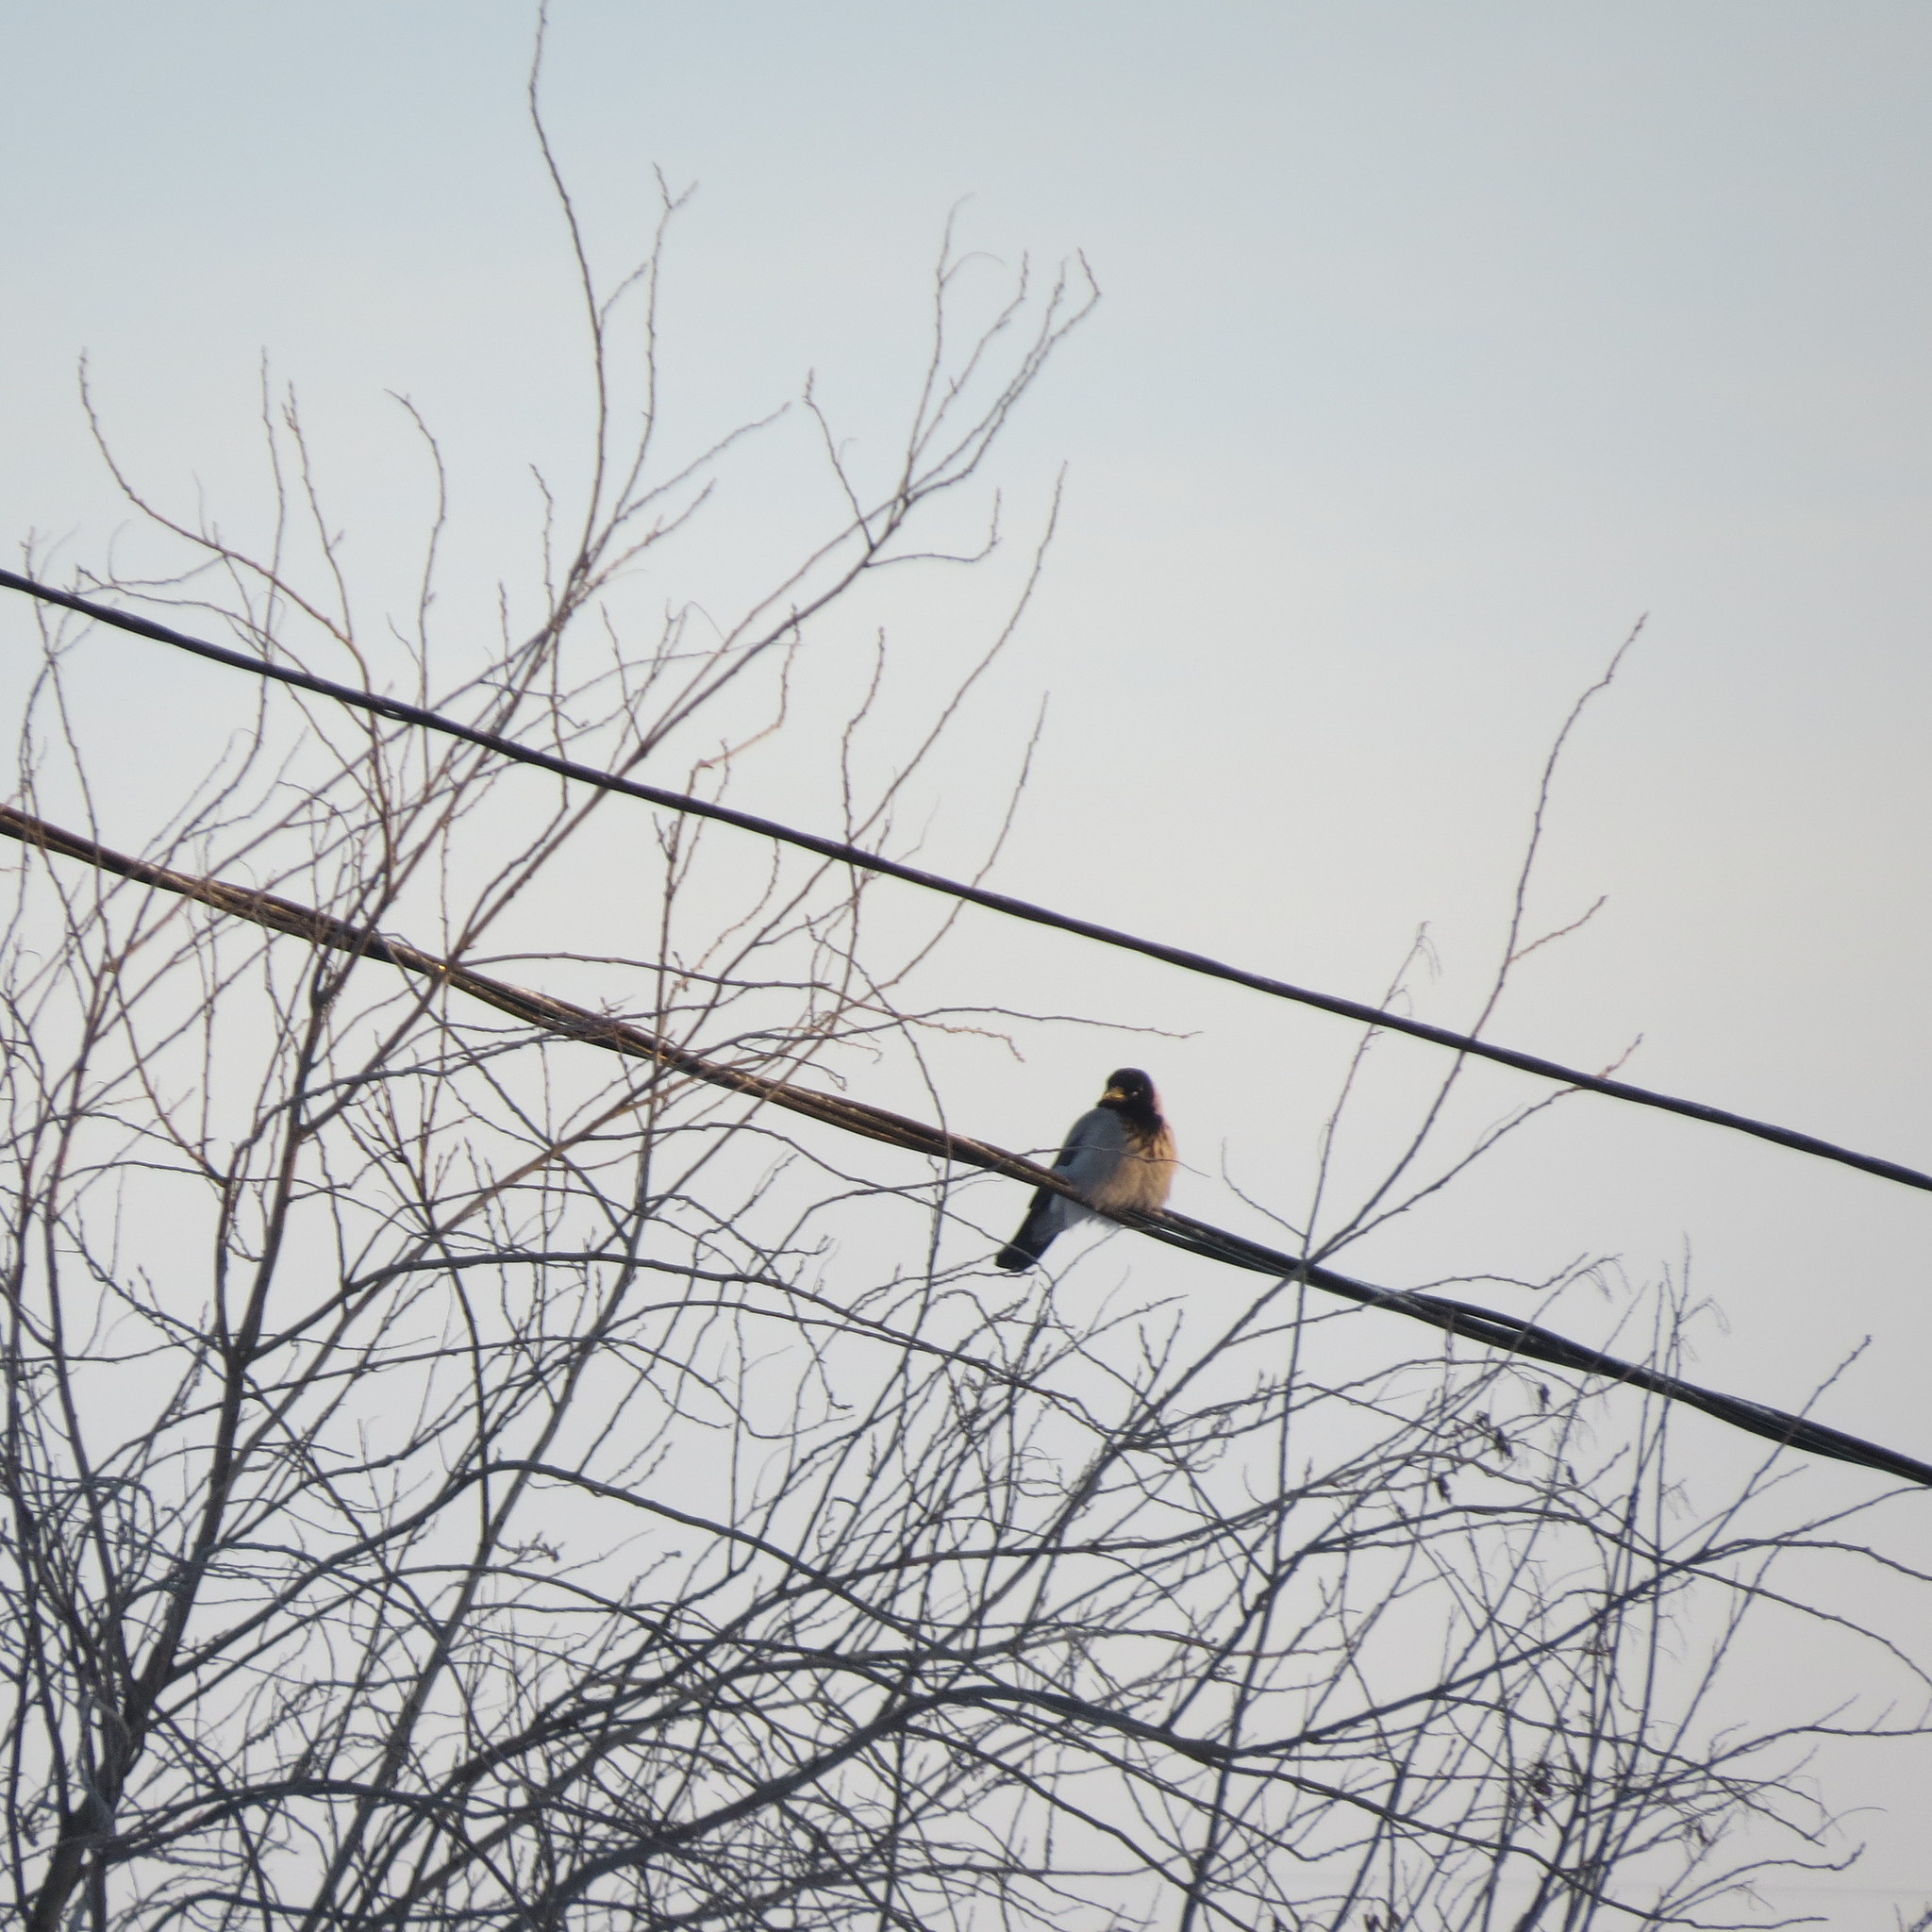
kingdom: Animalia
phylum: Chordata
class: Aves
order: Passeriformes
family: Corvidae
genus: Corvus
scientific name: Corvus cornix
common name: Hooded crow
